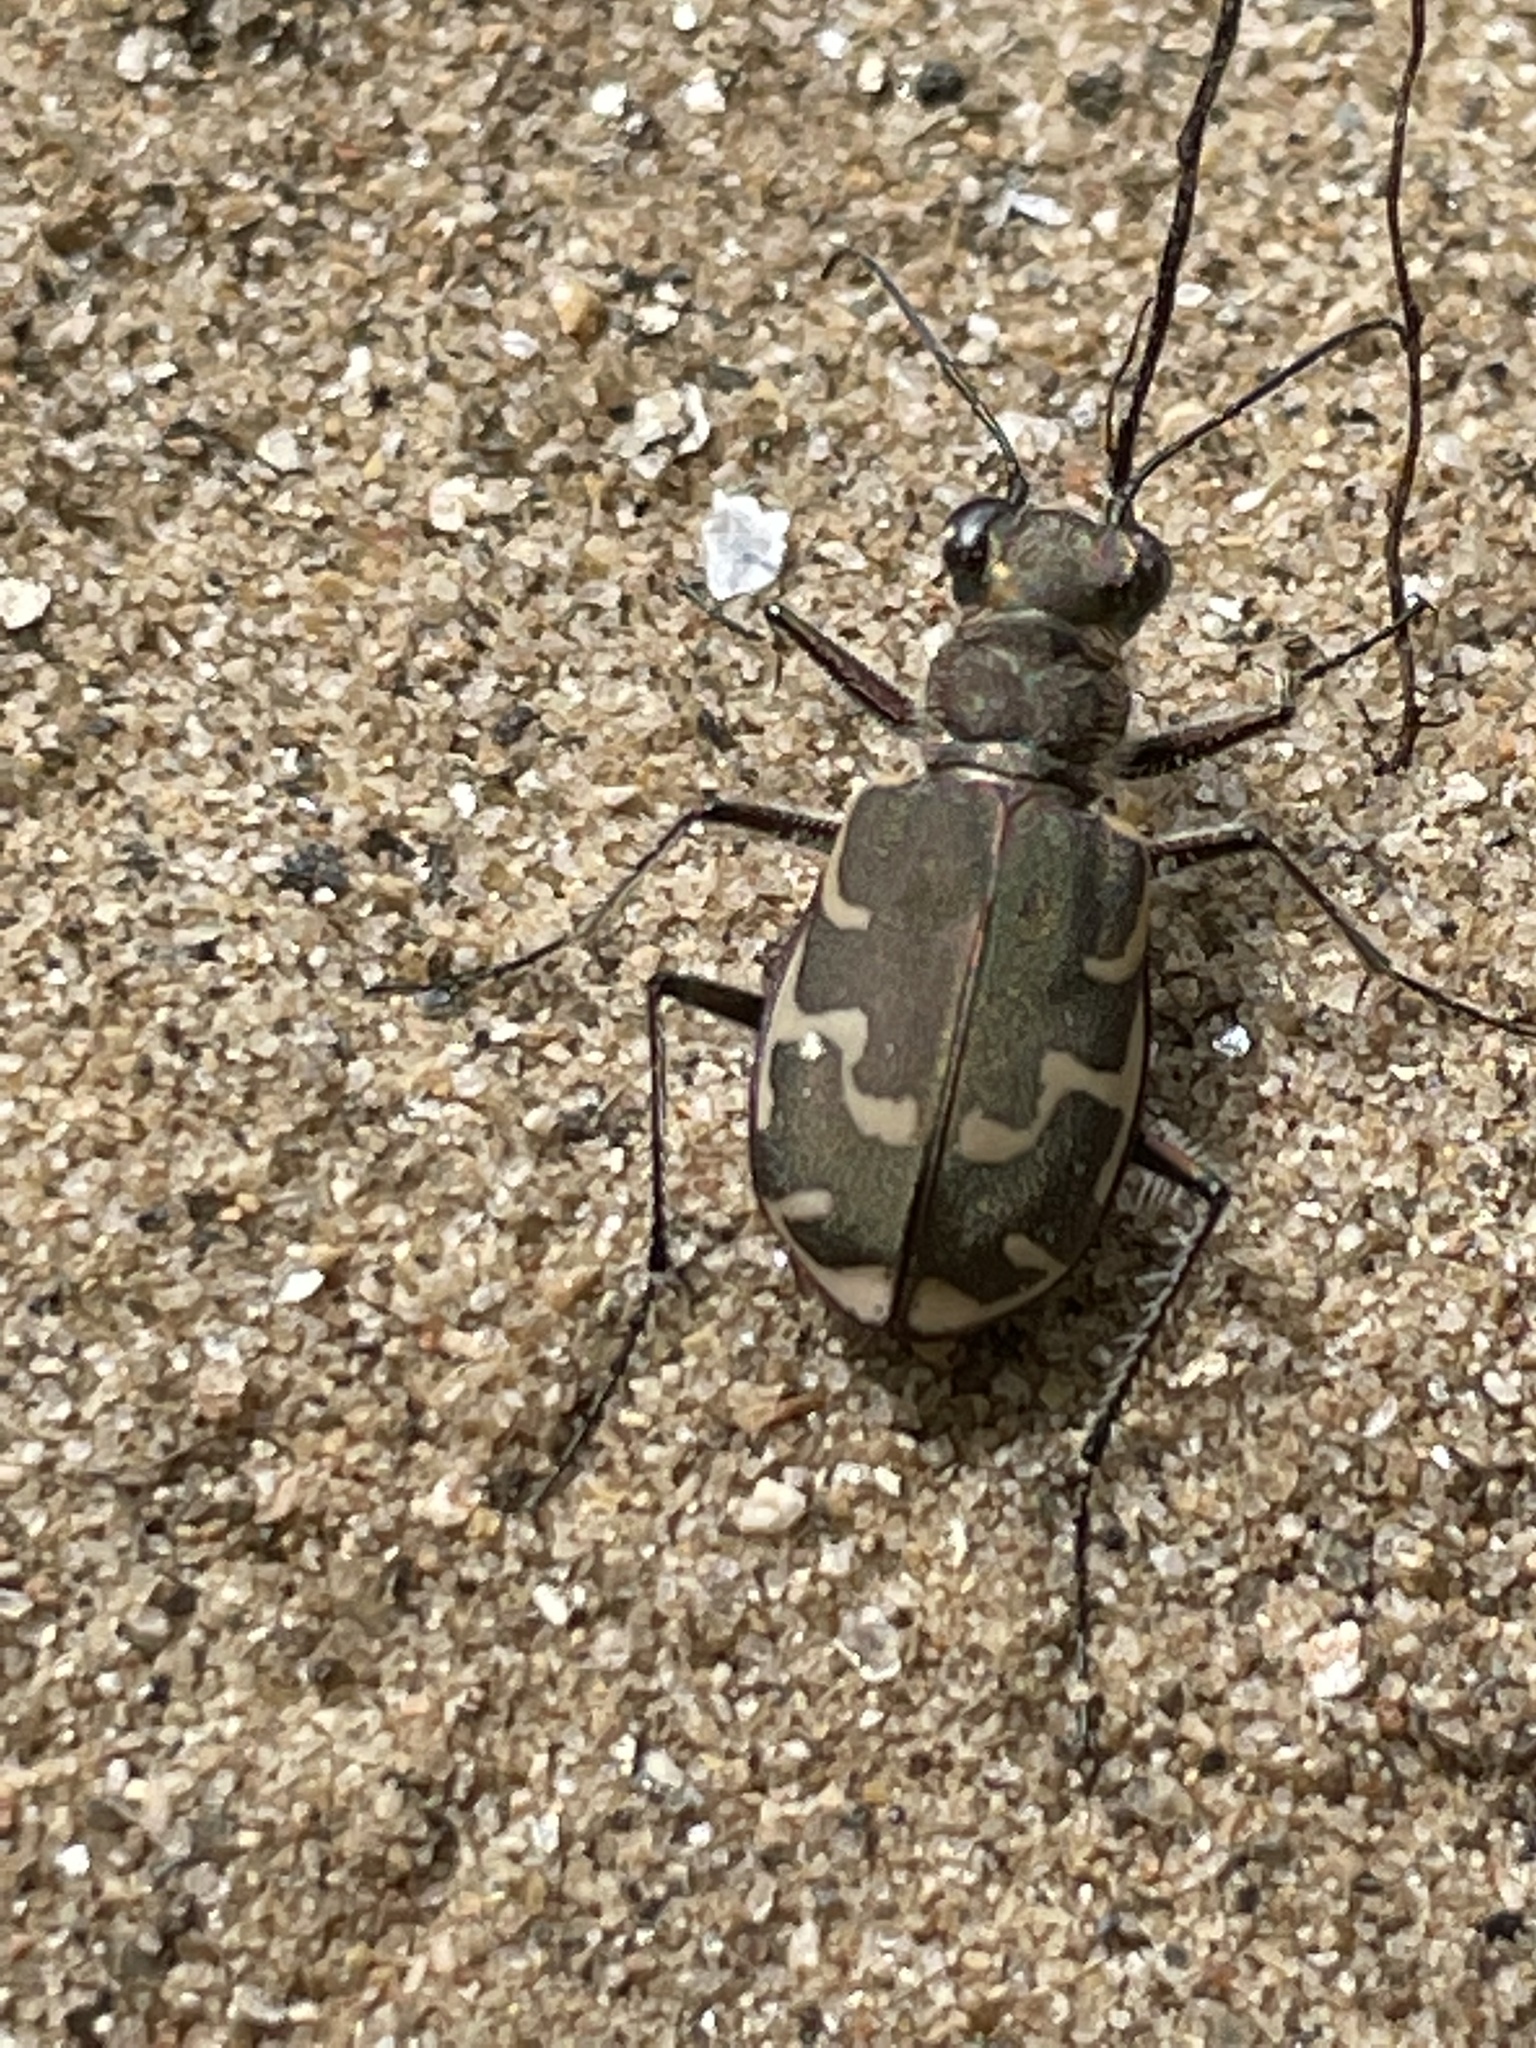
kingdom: Animalia
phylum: Arthropoda
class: Insecta
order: Coleoptera
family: Carabidae
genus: Cicindela
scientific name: Cicindela repanda
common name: Bronzed tiger beetle
